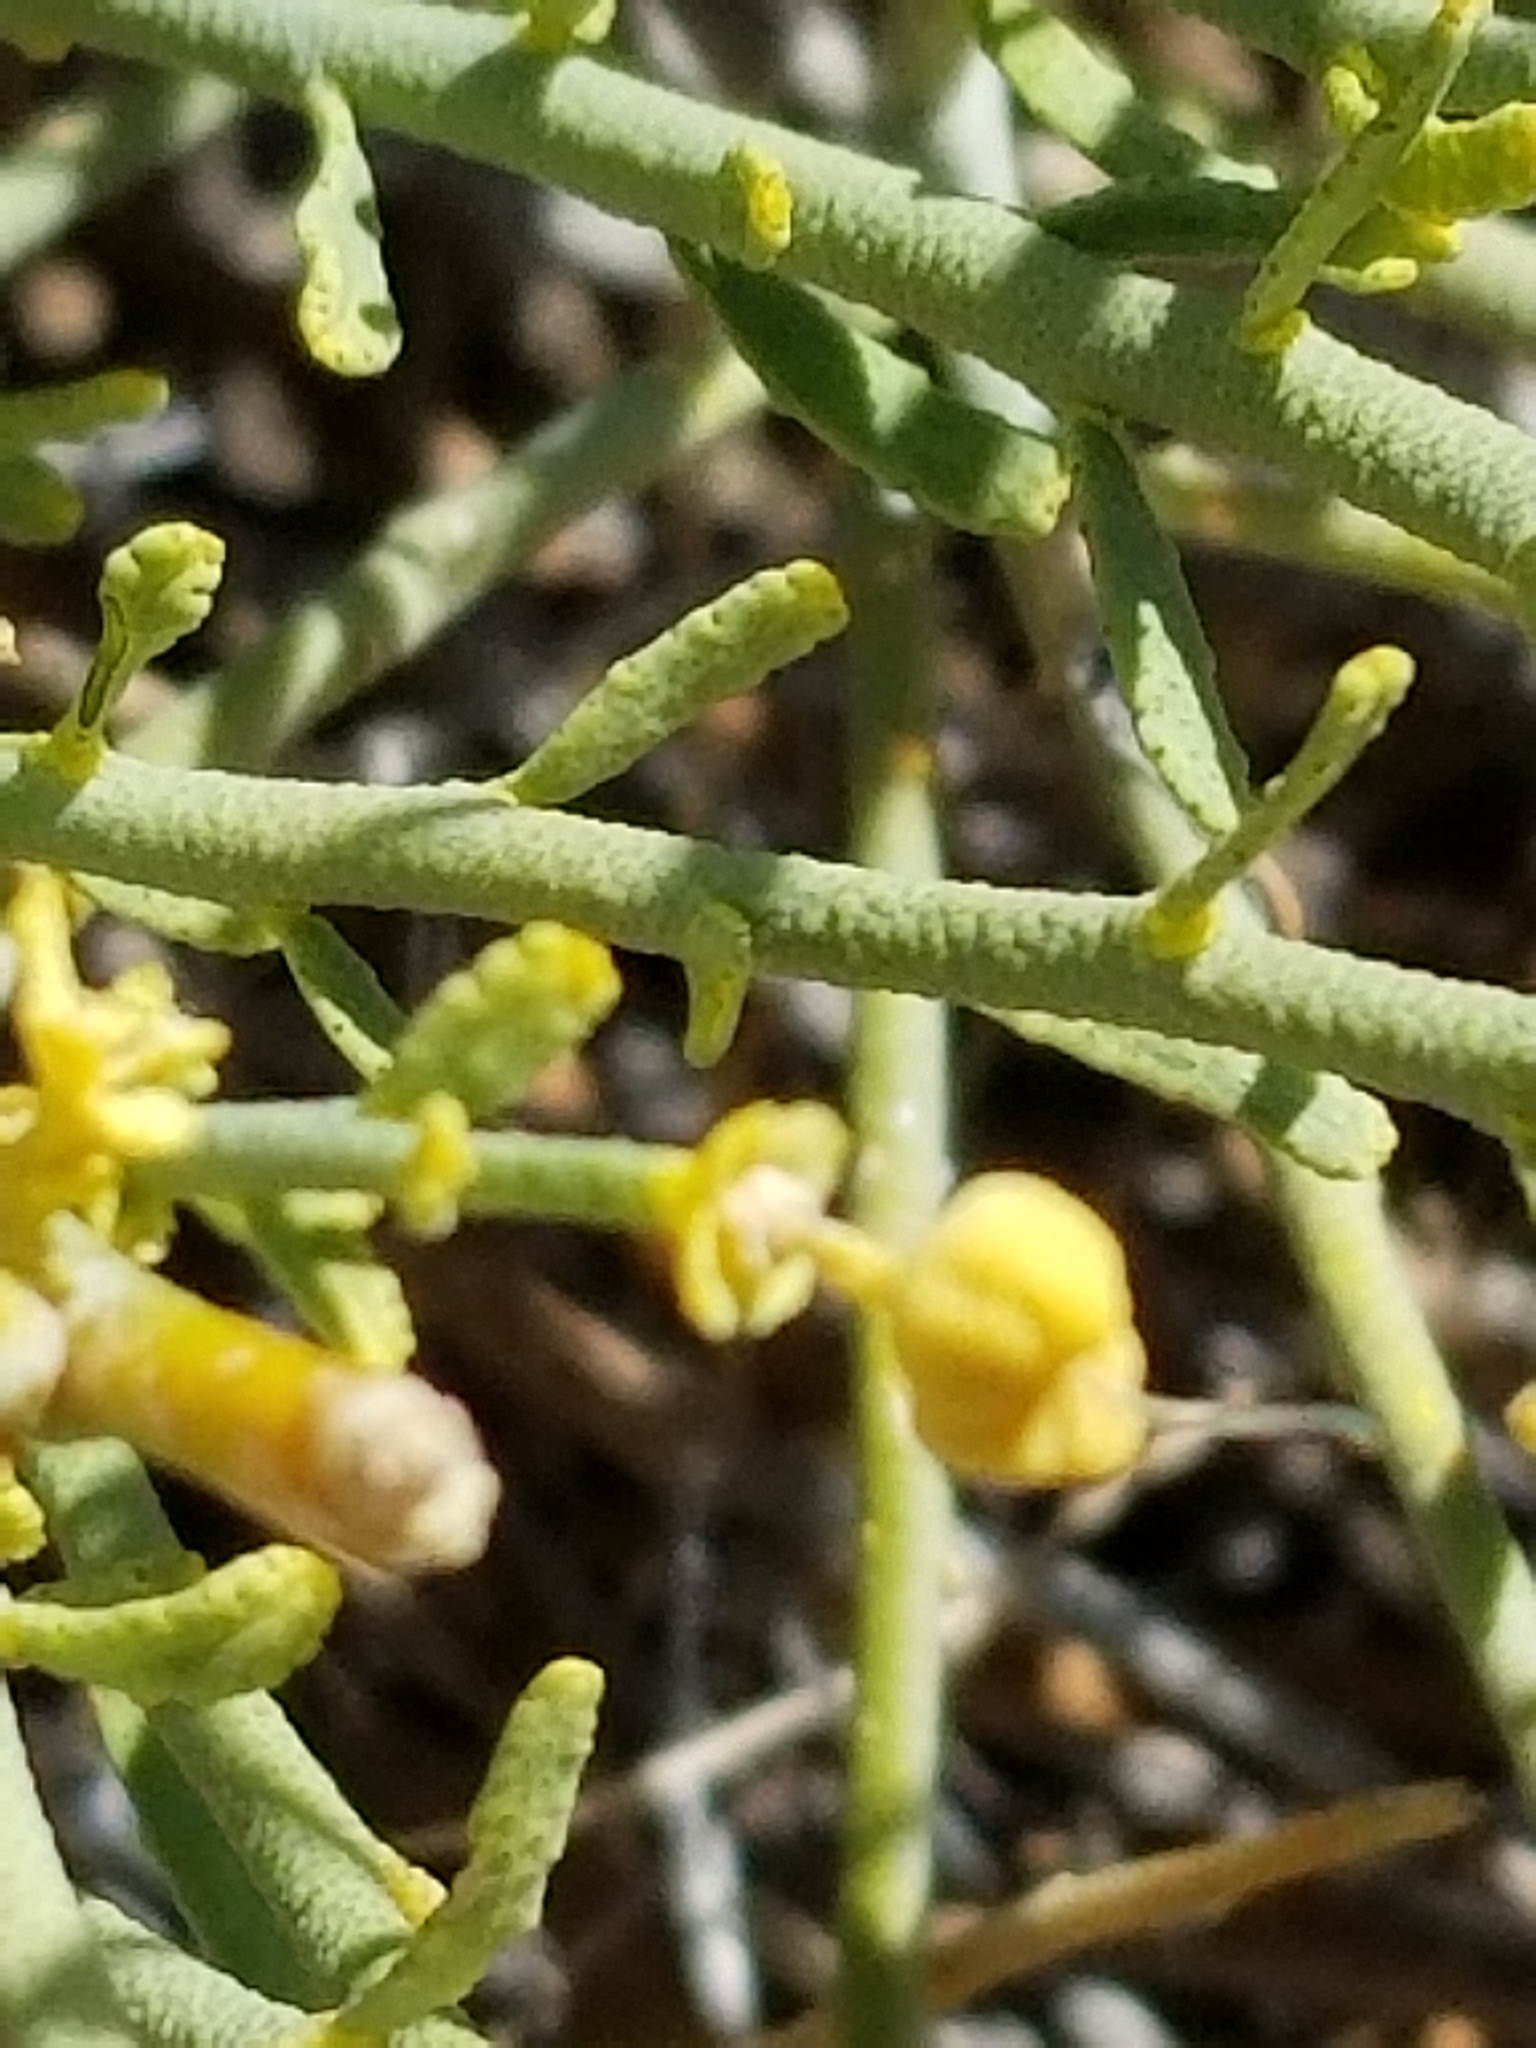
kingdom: Plantae
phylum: Tracheophyta
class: Magnoliopsida
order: Sapindales
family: Rutaceae
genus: Thamnosma
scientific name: Thamnosma montana
